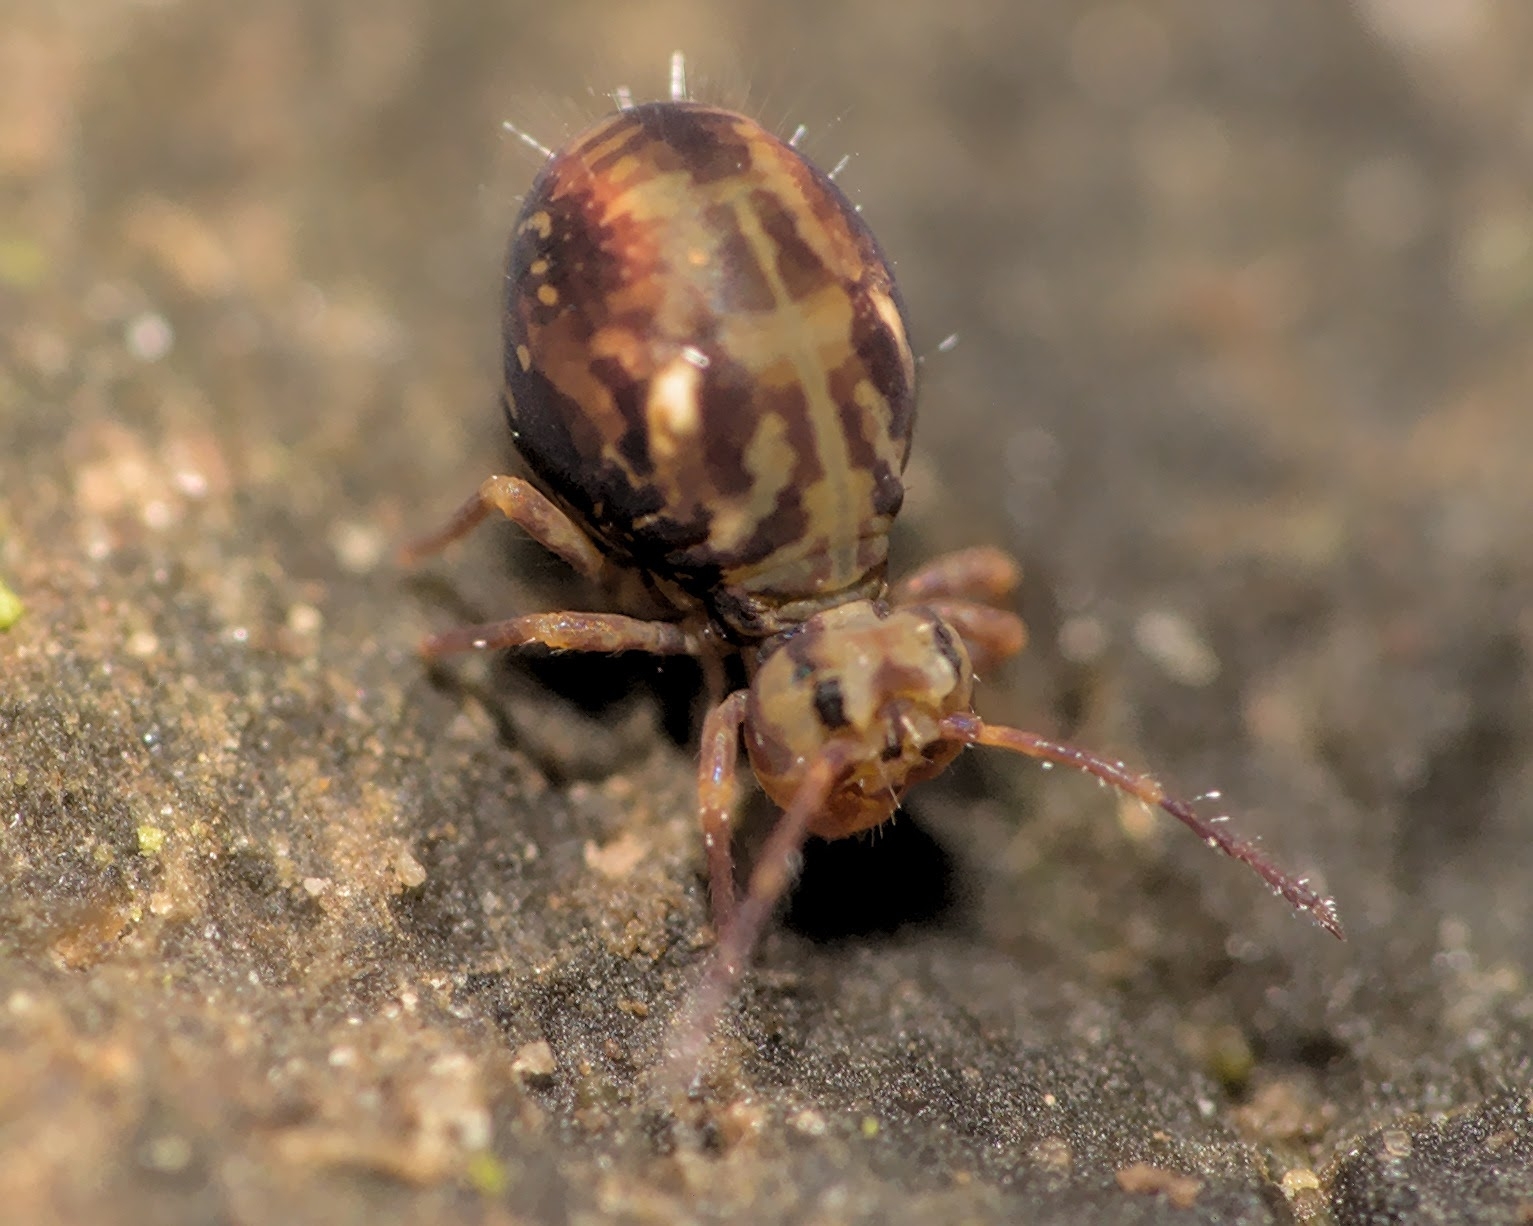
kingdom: Animalia
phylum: Arthropoda
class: Collembola
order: Symphypleona
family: Dicyrtomidae
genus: Dicyrtomina
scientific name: Dicyrtomina saundersi
